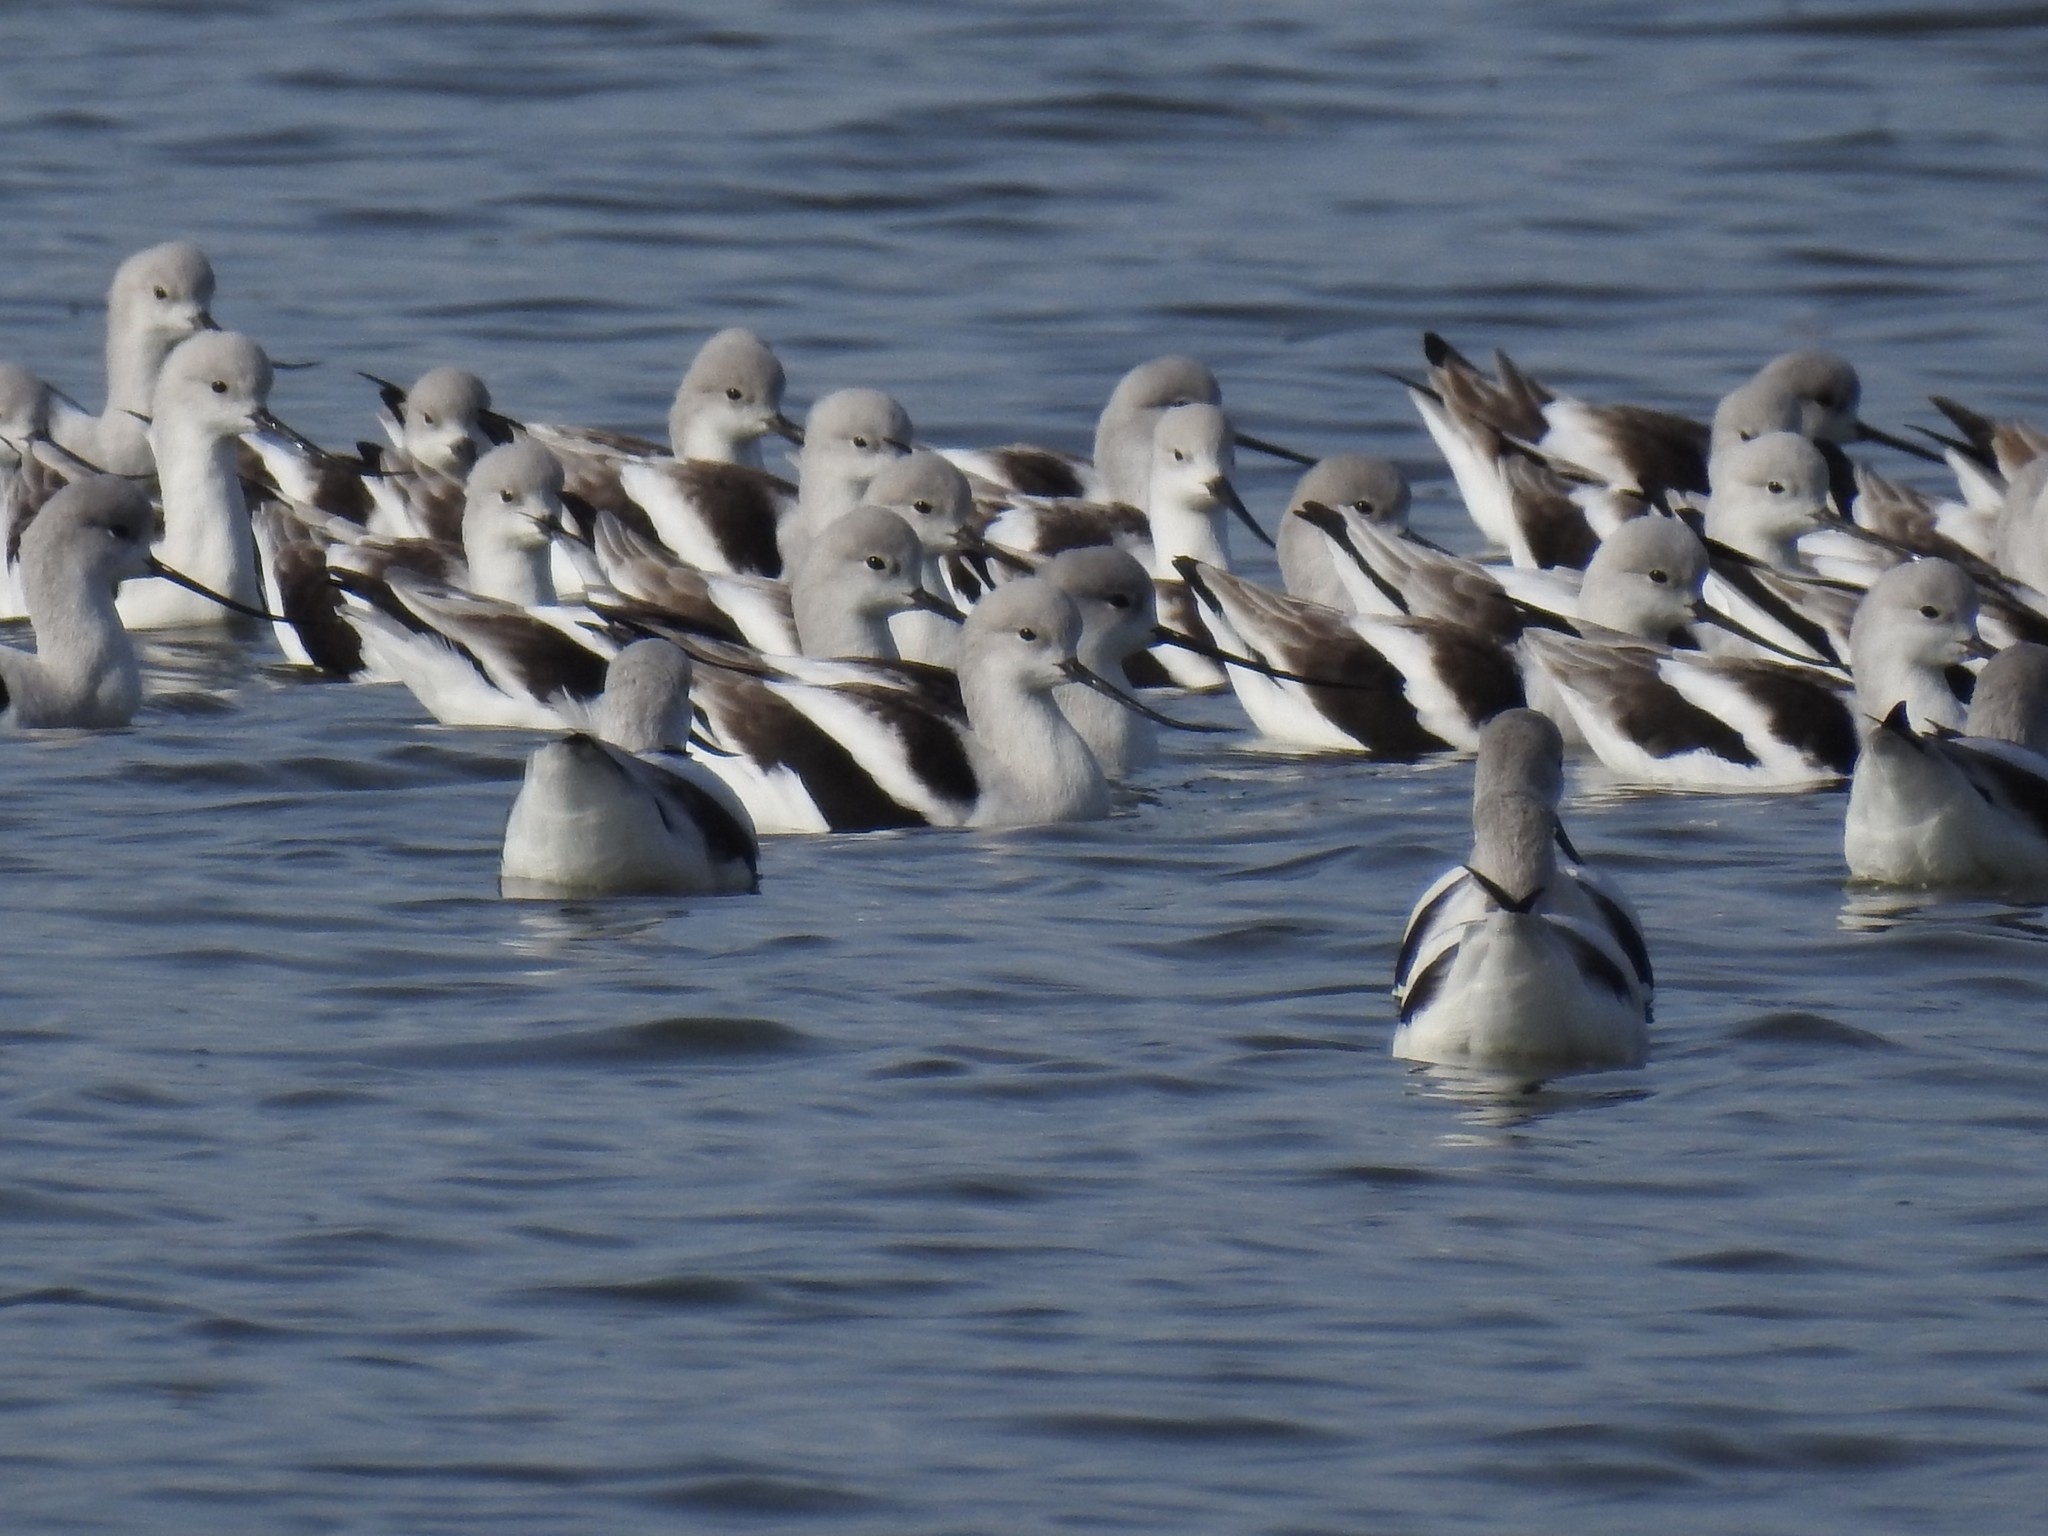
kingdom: Animalia
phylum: Chordata
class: Aves
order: Charadriiformes
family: Recurvirostridae
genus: Recurvirostra
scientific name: Recurvirostra americana
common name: American avocet
